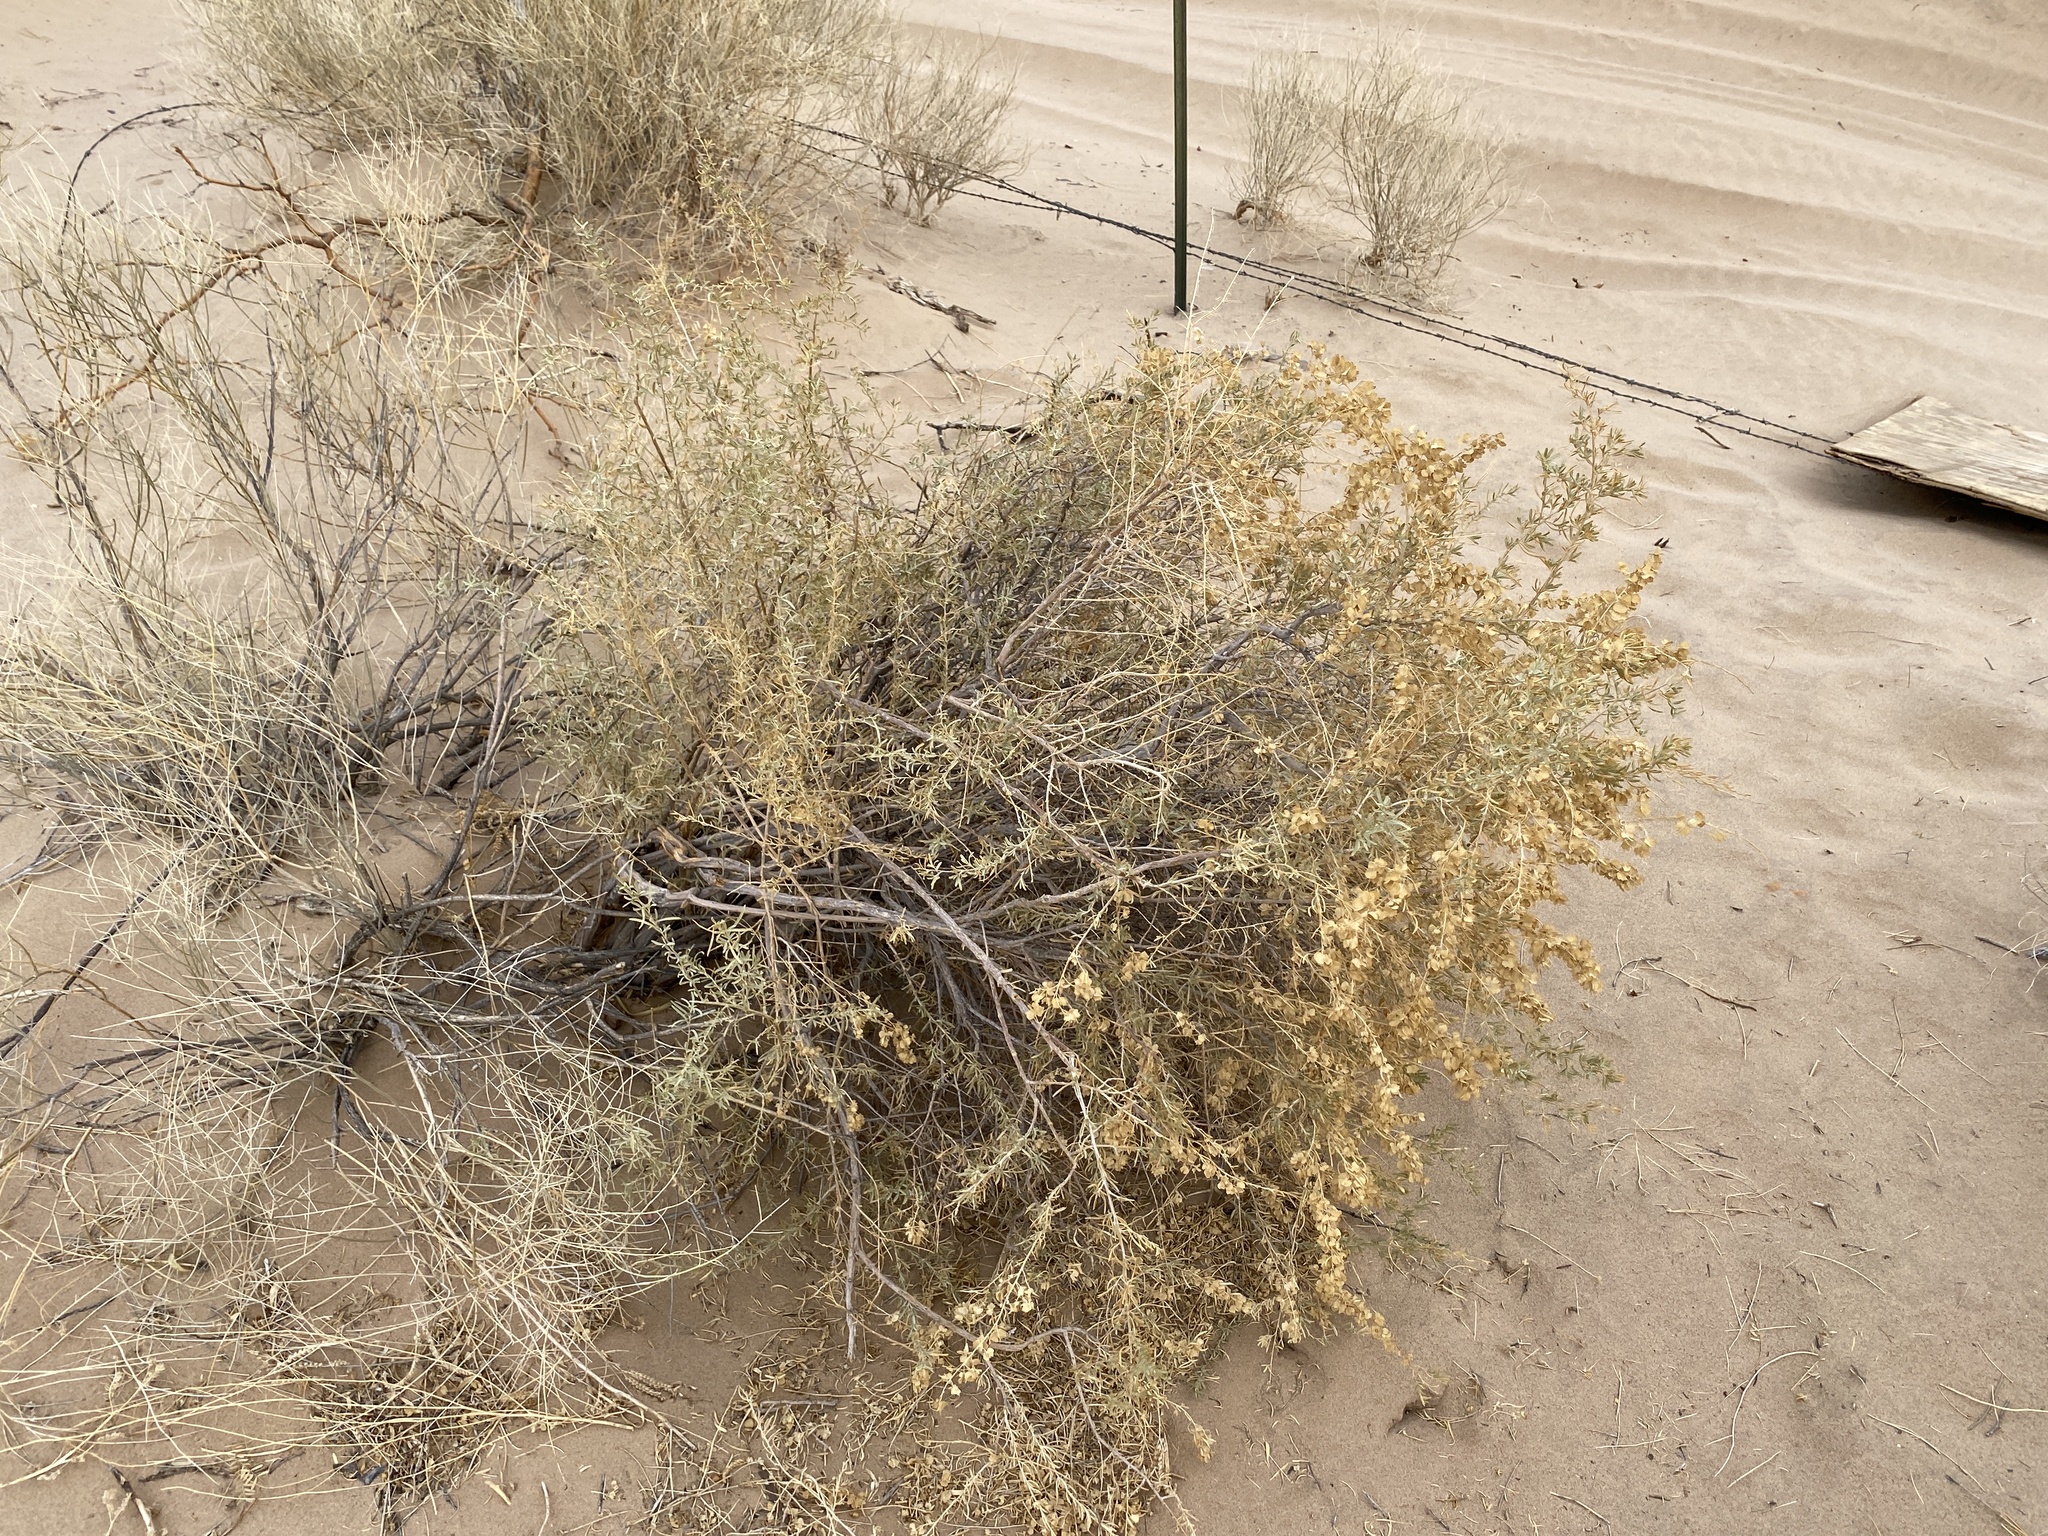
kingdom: Plantae
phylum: Tracheophyta
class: Magnoliopsida
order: Caryophyllales
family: Amaranthaceae
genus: Atriplex
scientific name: Atriplex canescens
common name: Four-wing saltbush
